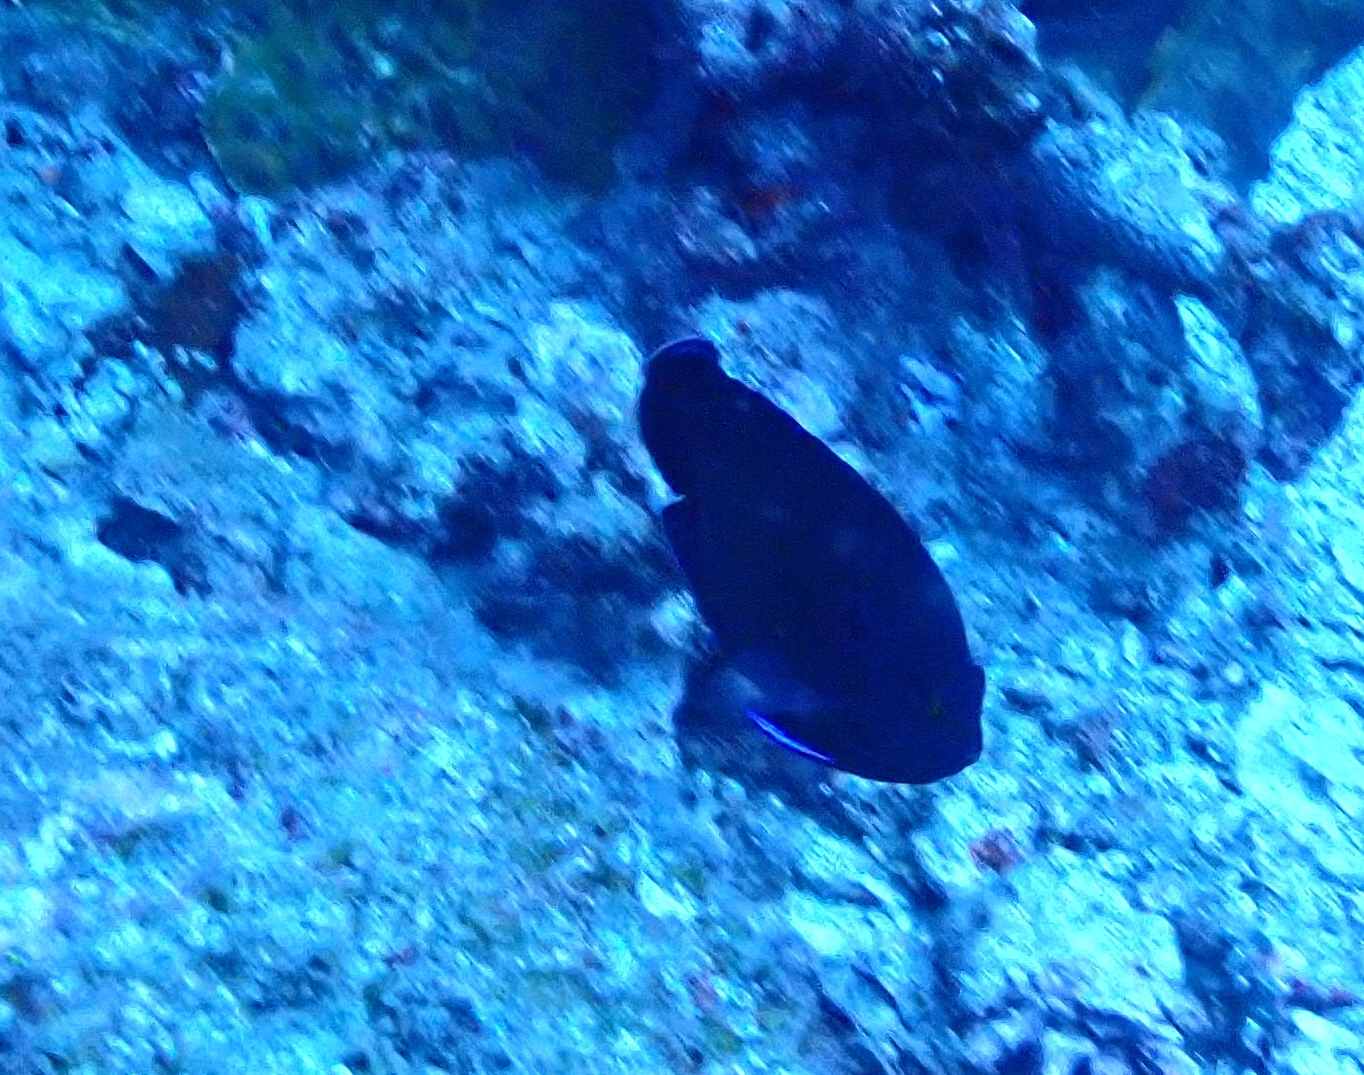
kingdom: Animalia
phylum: Chordata
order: Perciformes
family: Pomacanthidae
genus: Centropyge
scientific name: Centropyge multispinis
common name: Many-spined angelfish
